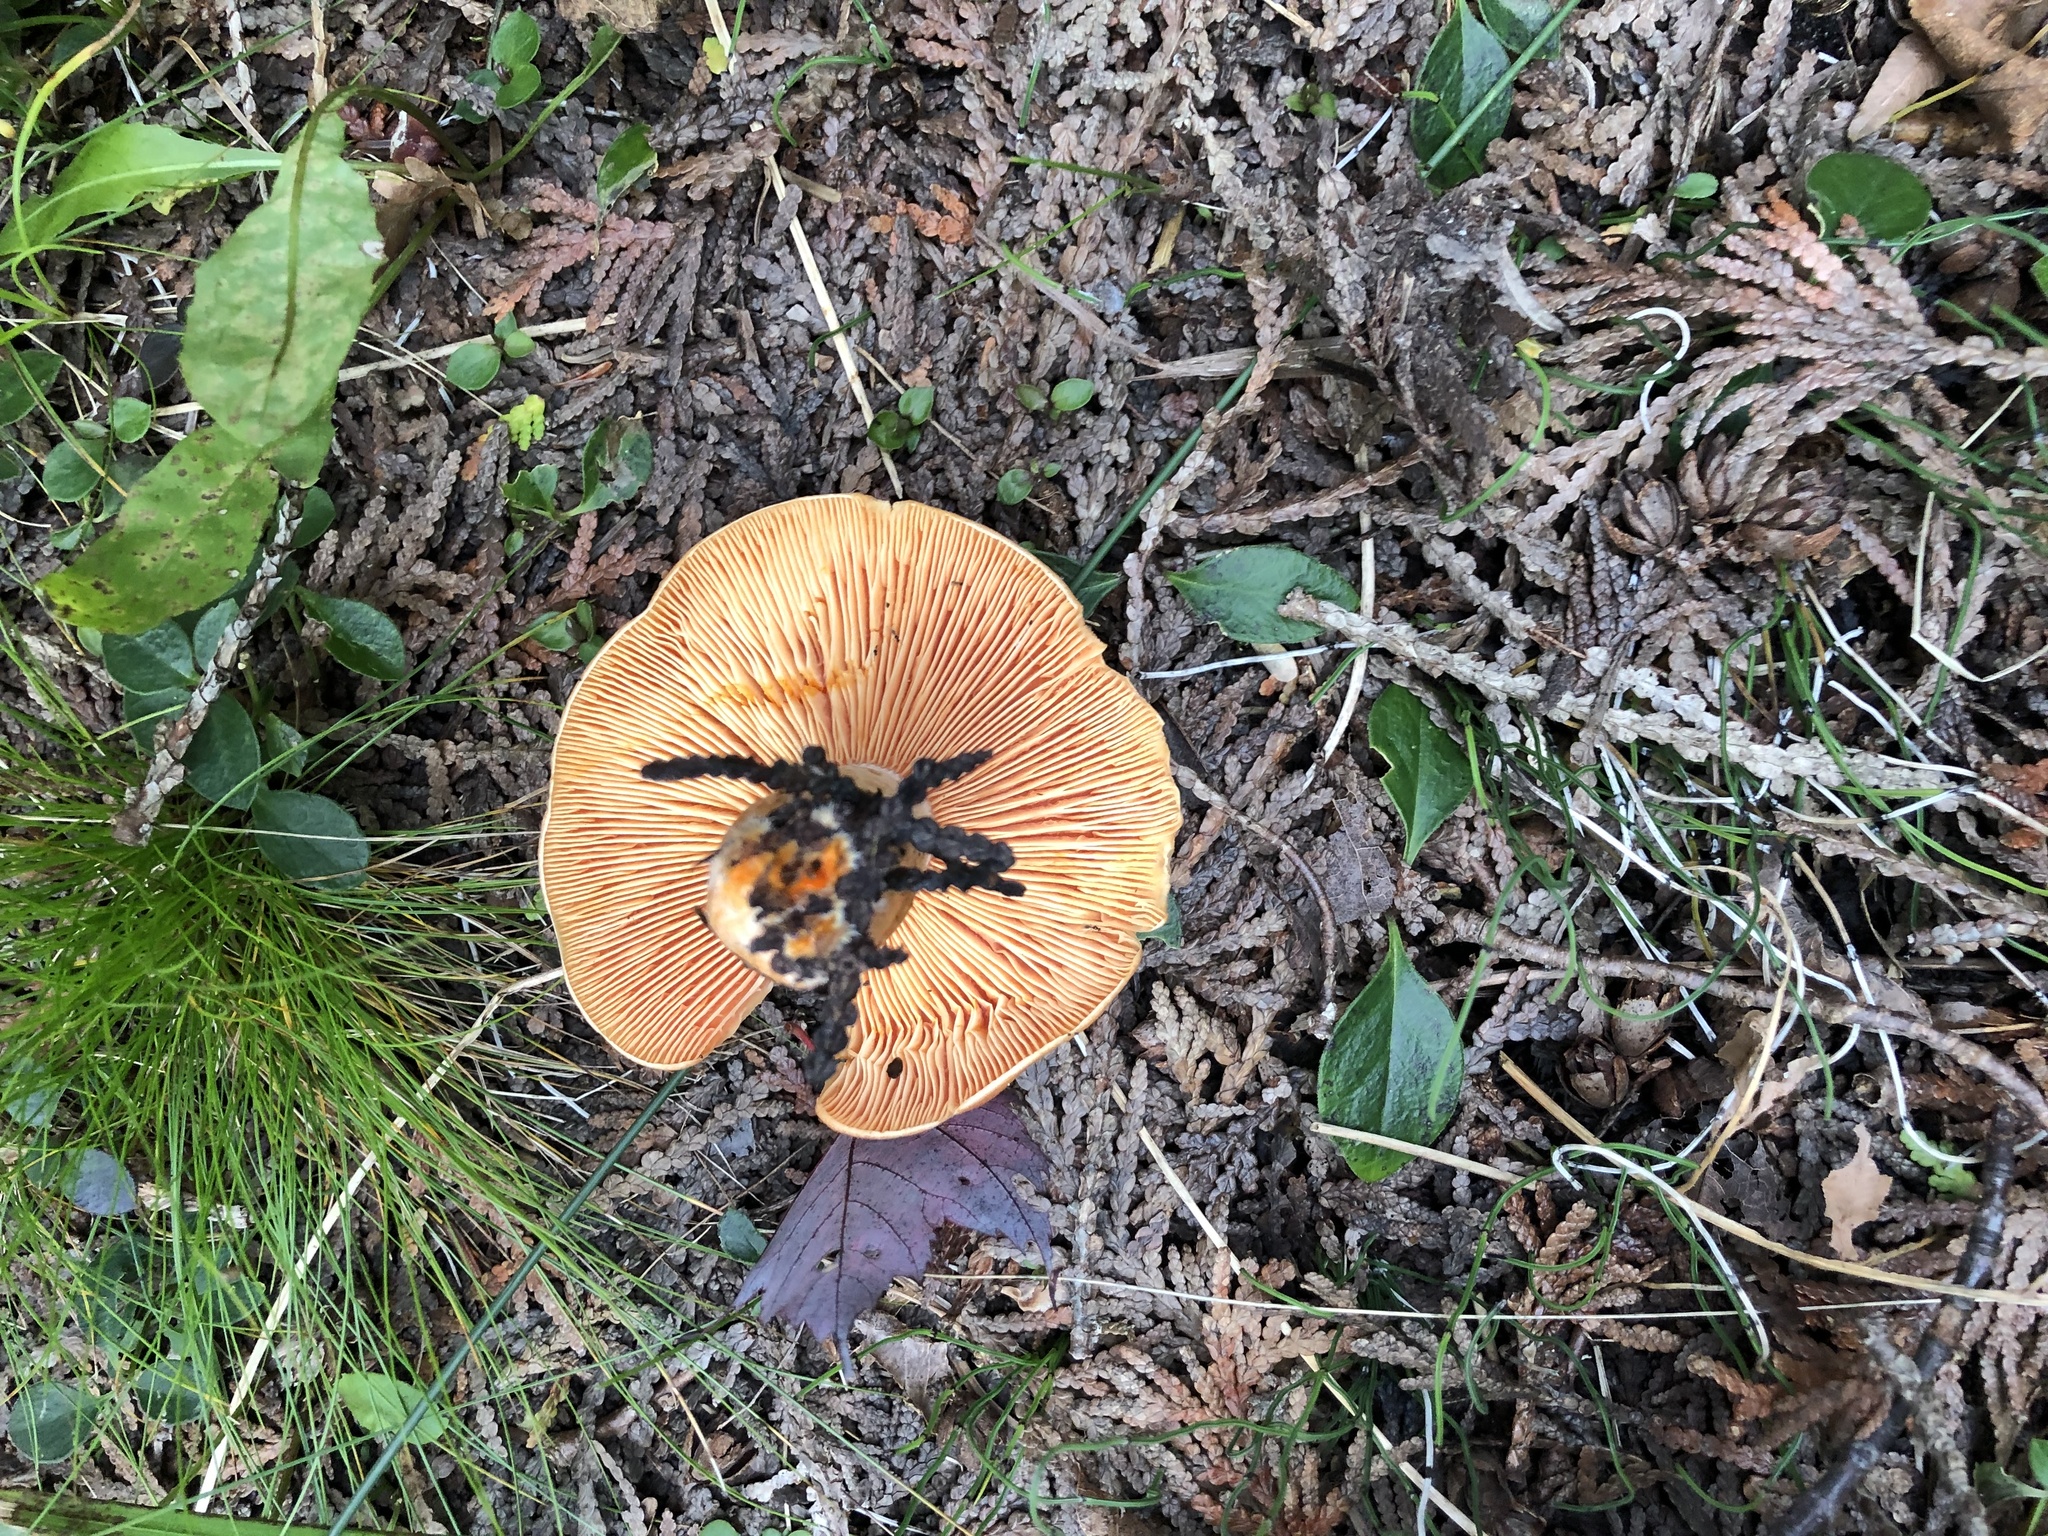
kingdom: Fungi
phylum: Basidiomycota
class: Agaricomycetes
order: Russulales
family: Russulaceae
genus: Lactarius
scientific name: Lactarius deterrimus
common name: False saffron milkcap
